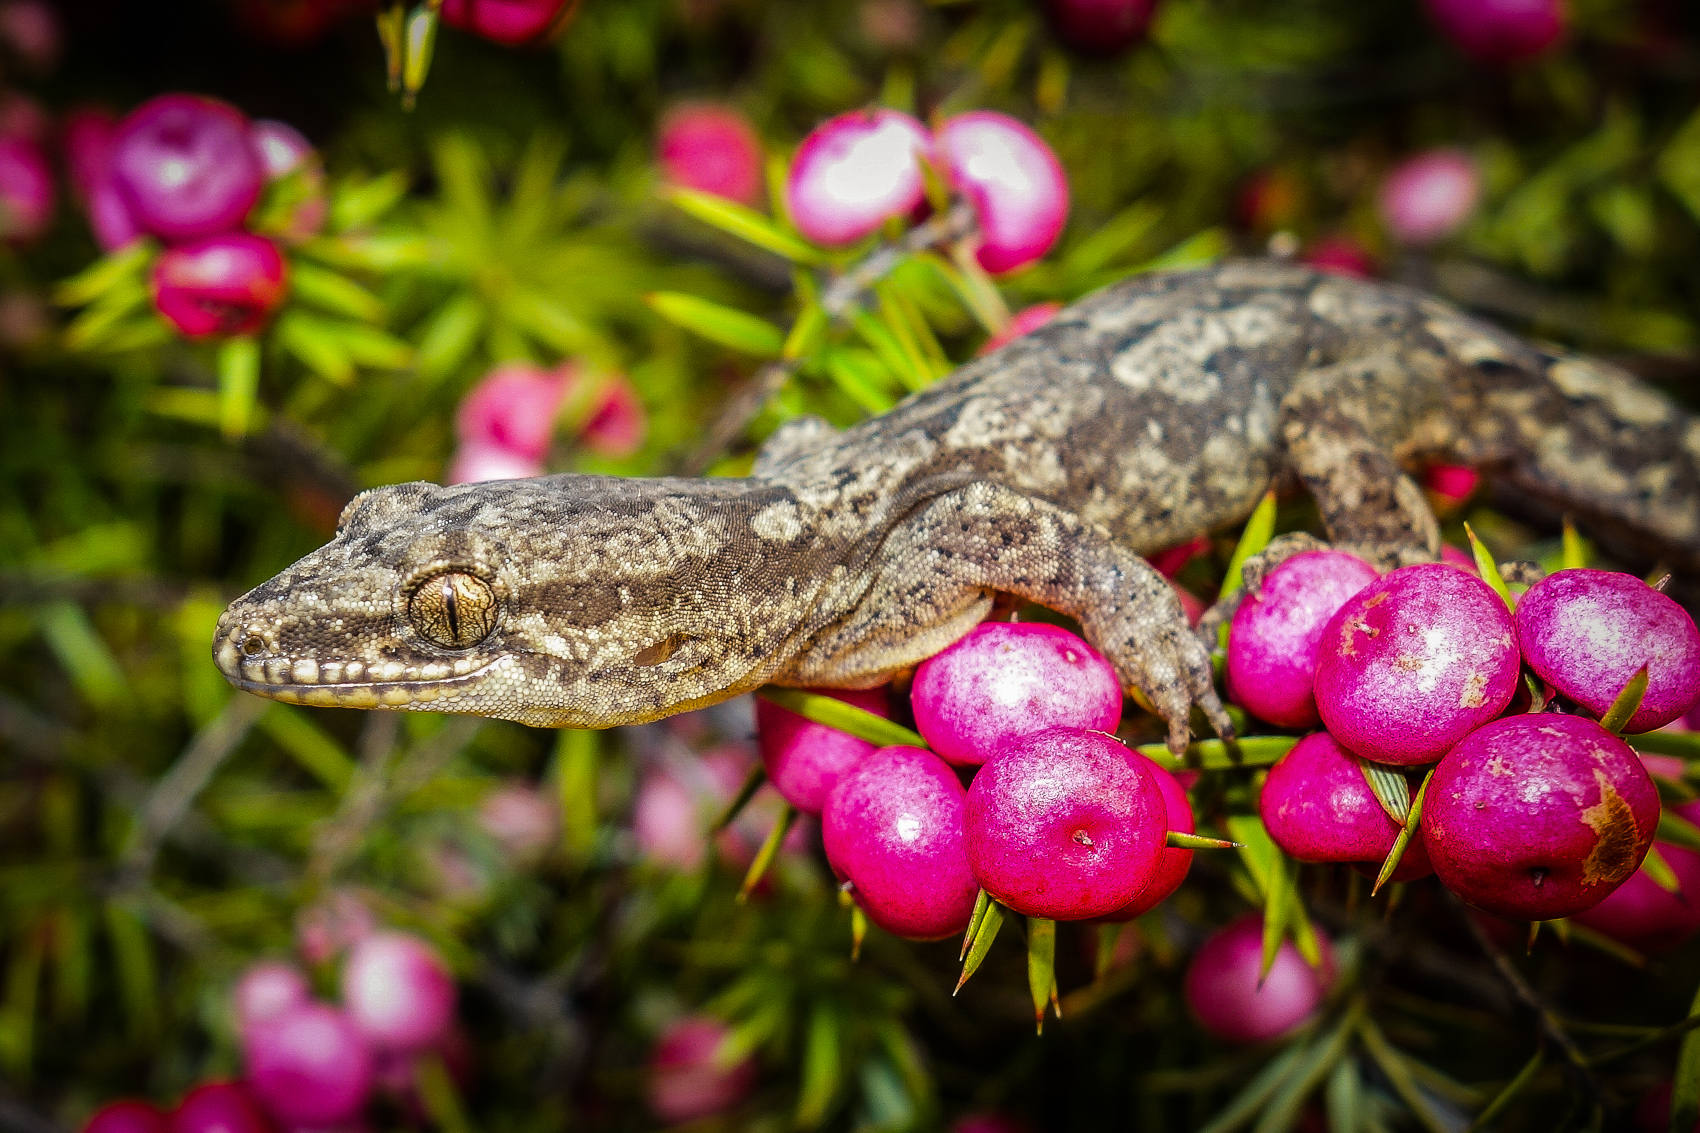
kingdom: Animalia
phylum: Chordata
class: Squamata
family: Diplodactylidae
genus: Dactylocnemis
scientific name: Dactylocnemis
